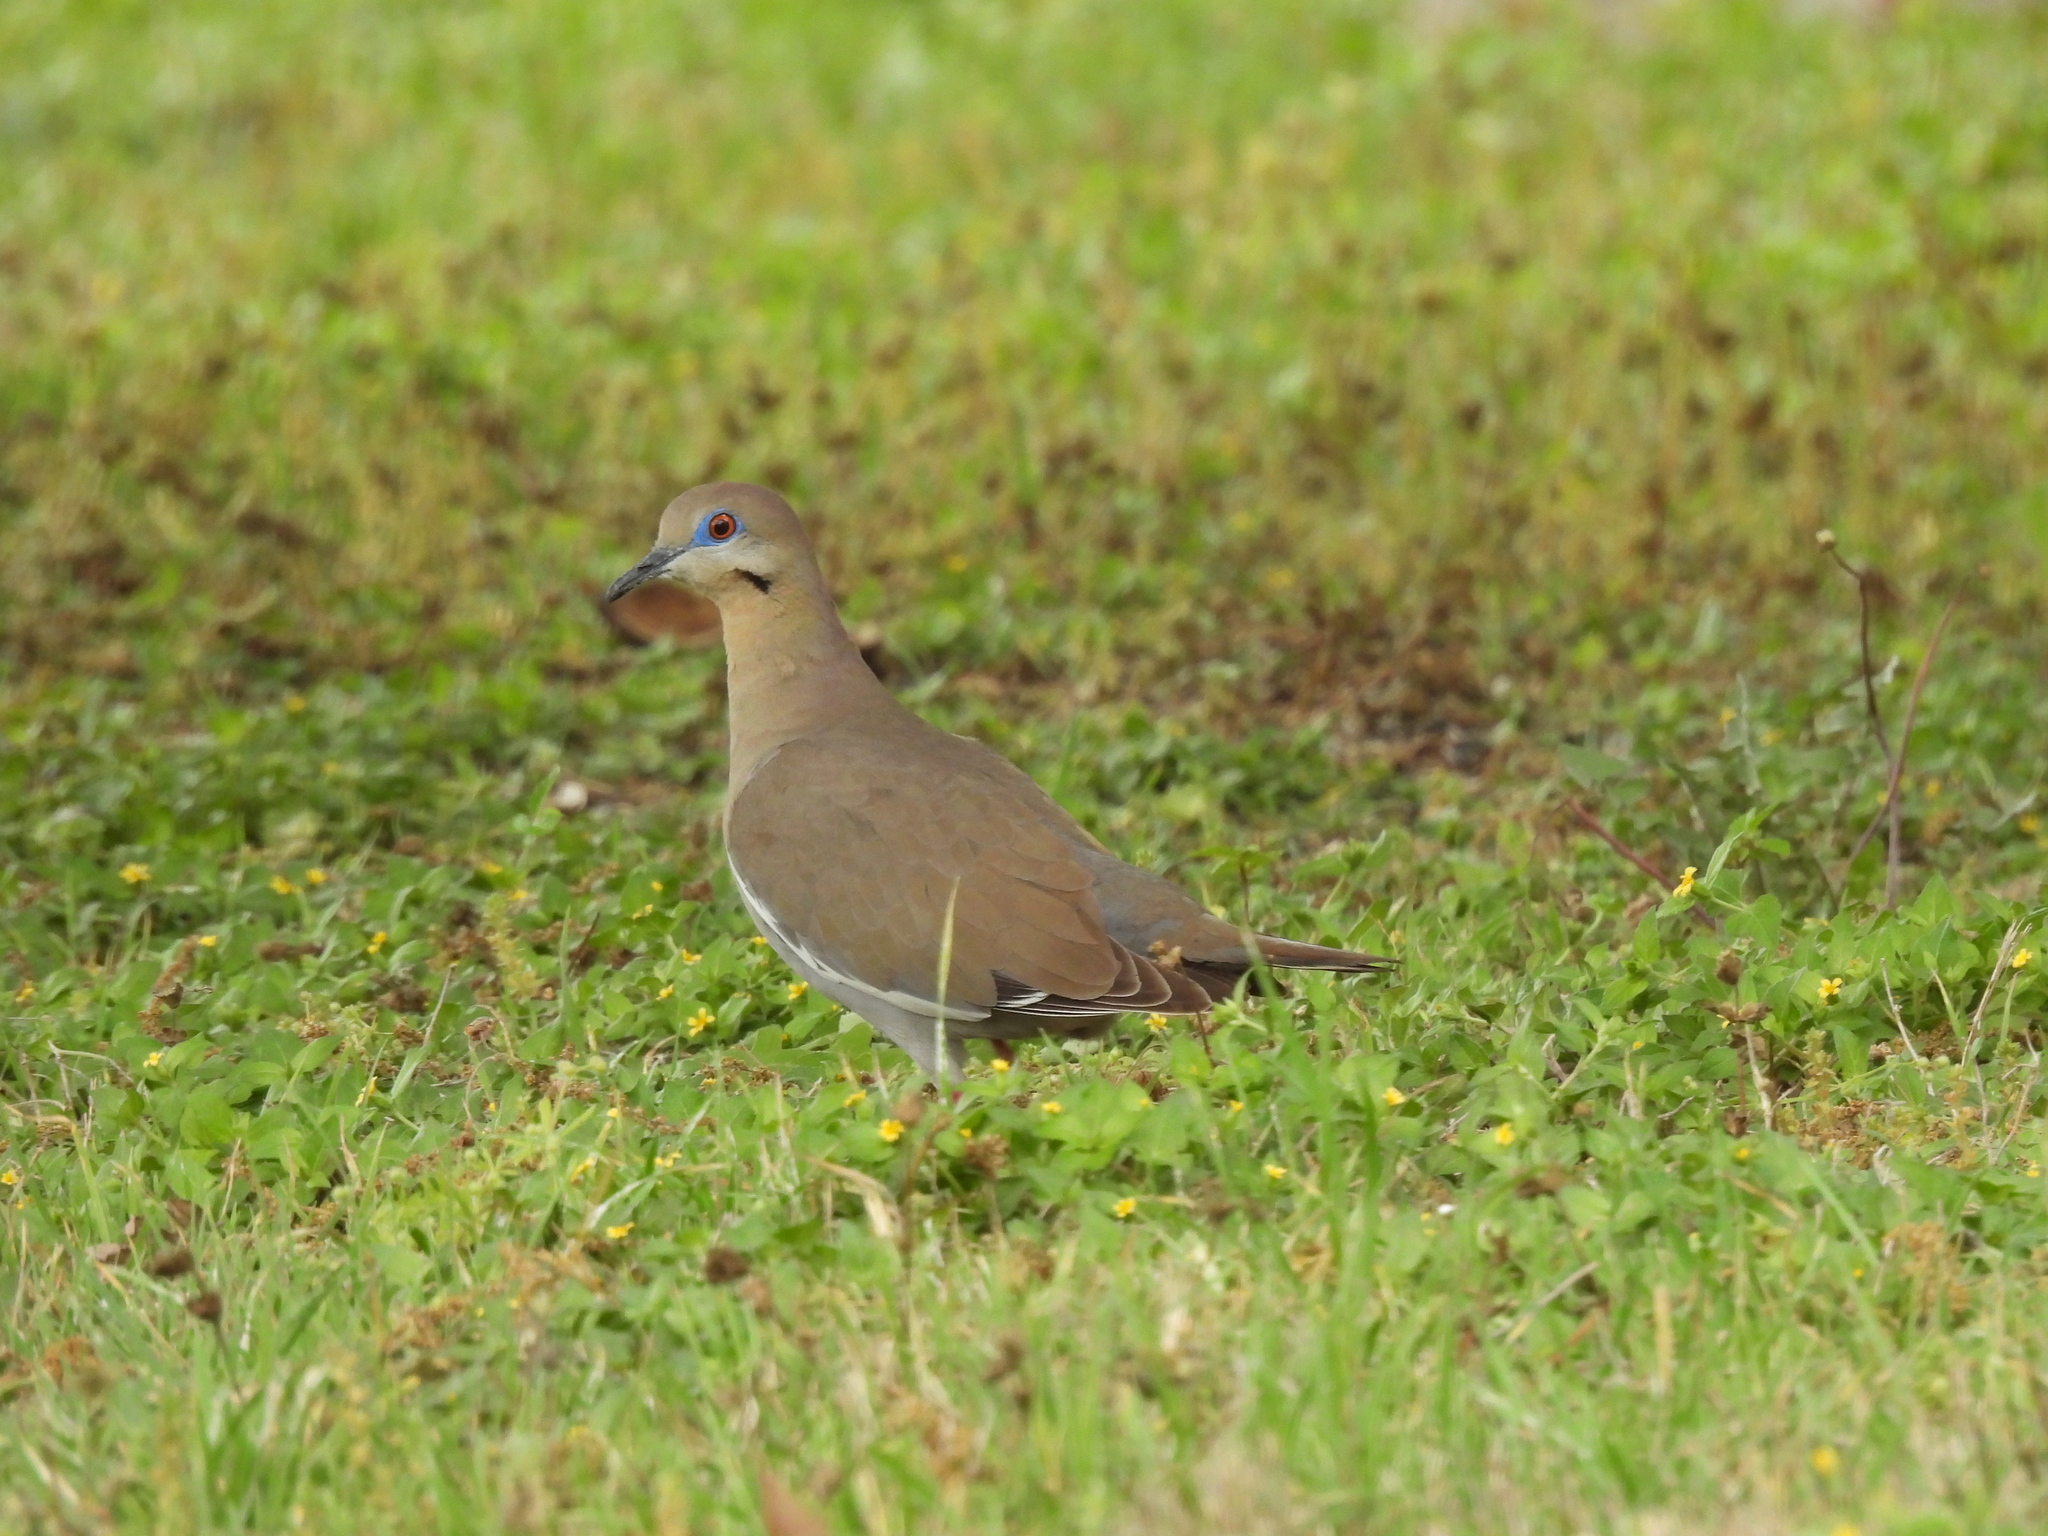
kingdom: Animalia
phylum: Chordata
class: Aves
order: Columbiformes
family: Columbidae
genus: Zenaida
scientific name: Zenaida asiatica
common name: White-winged dove
